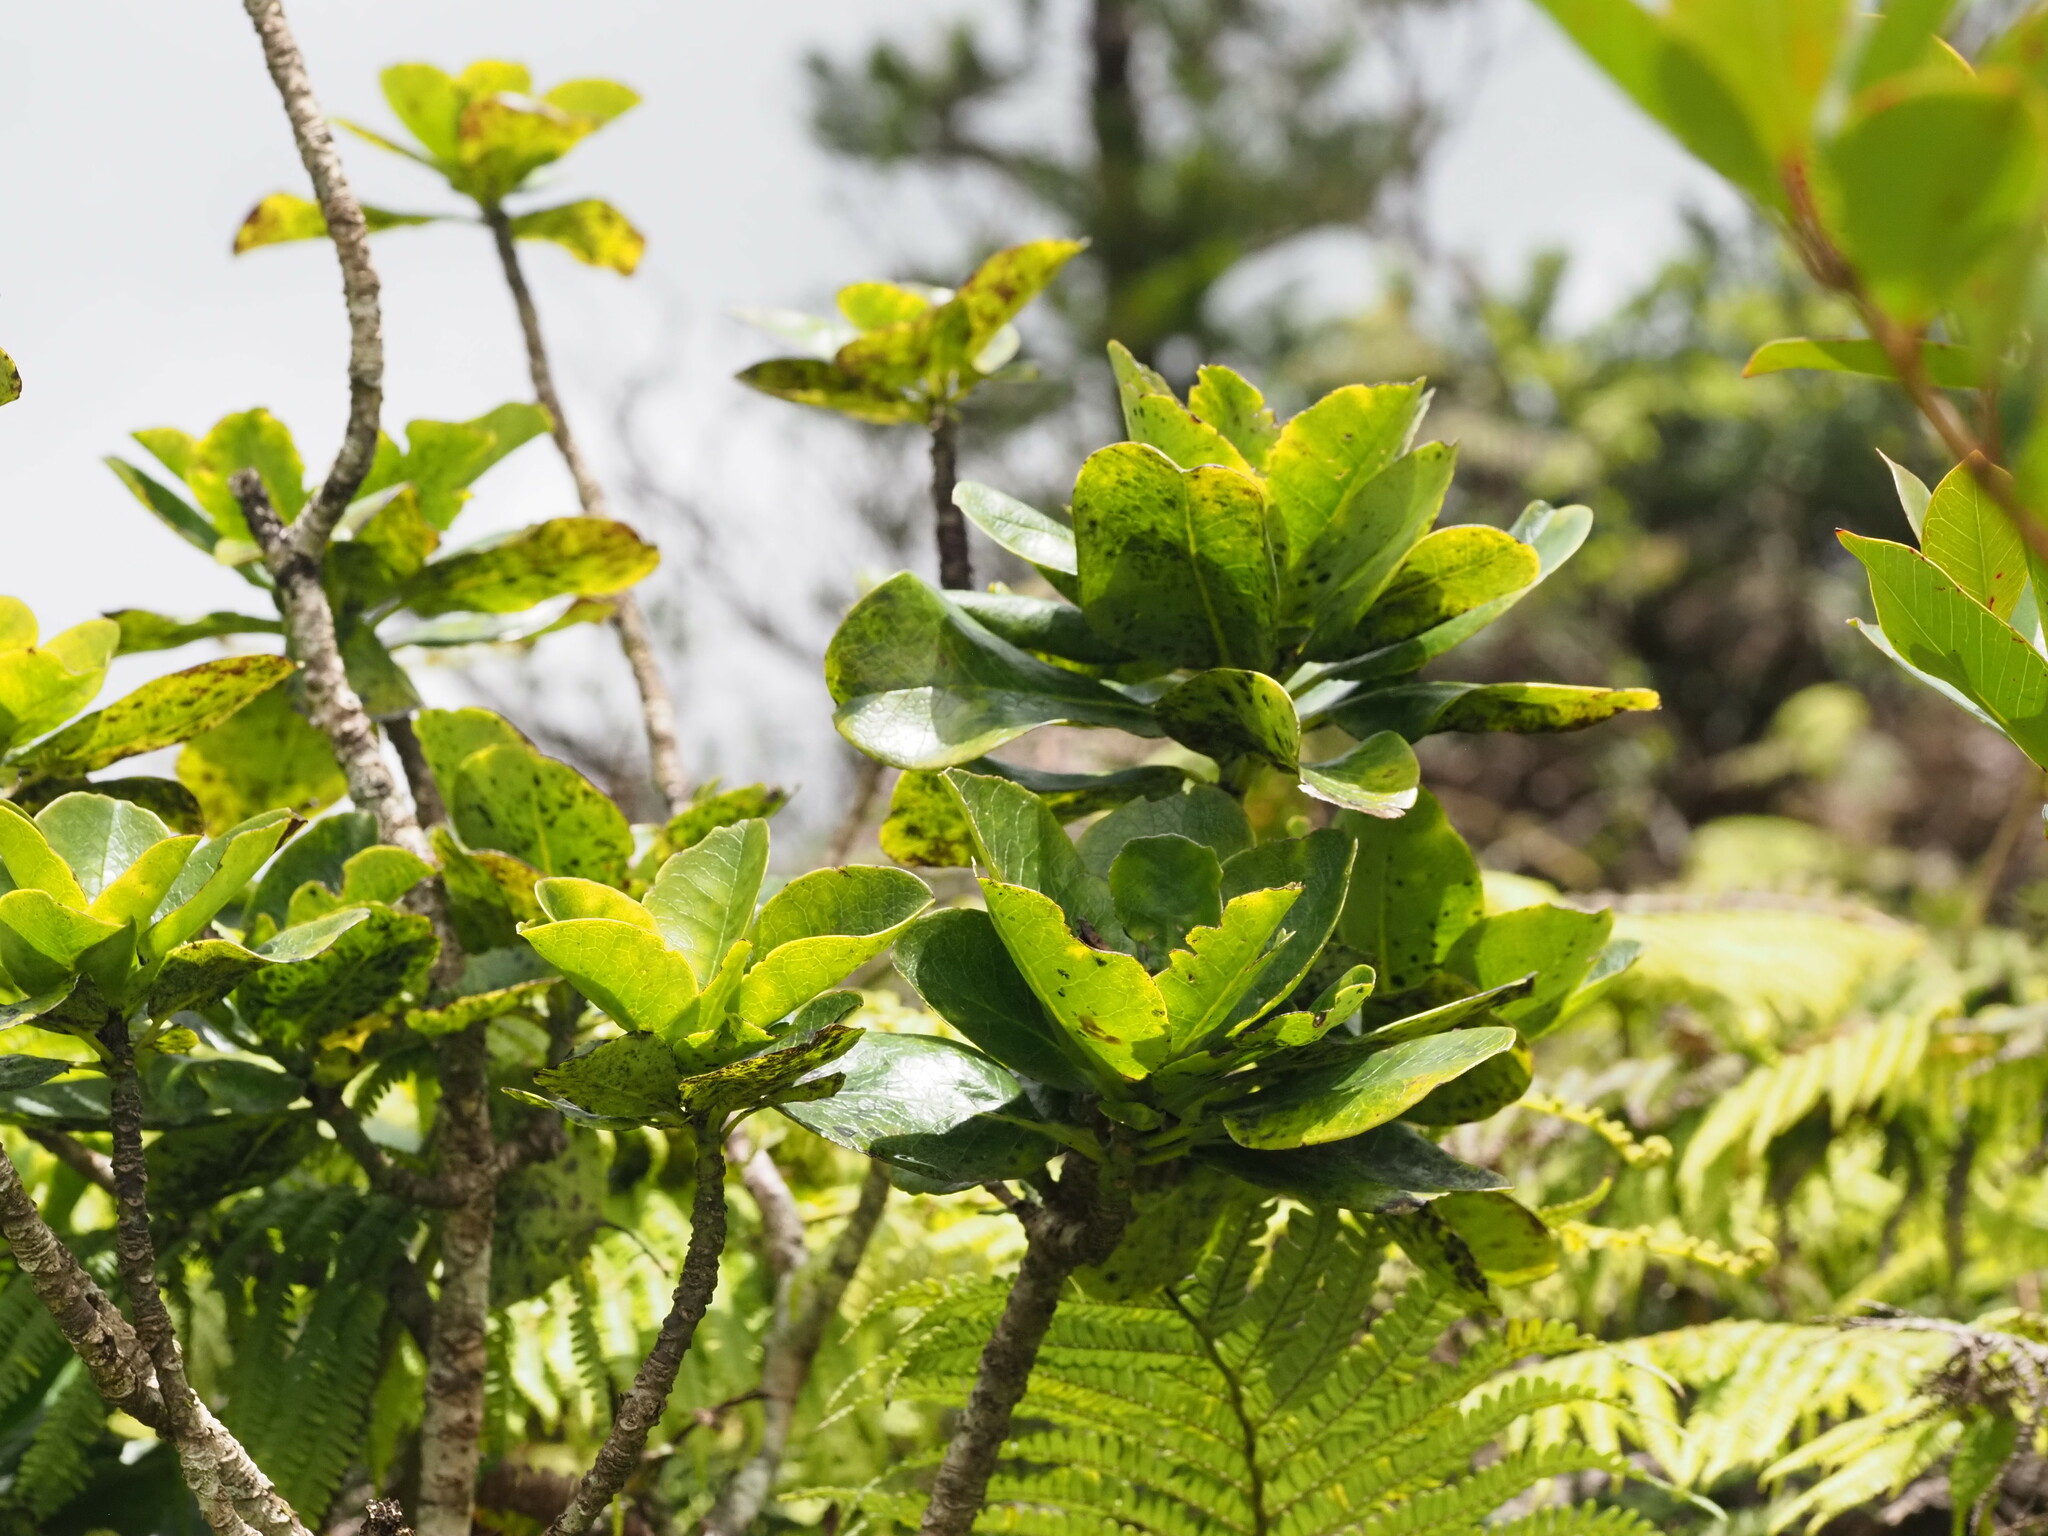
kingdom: Plantae
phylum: Tracheophyta
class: Magnoliopsida
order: Aquifoliales
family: Aquifoliaceae
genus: Ilex
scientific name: Ilex anomala
